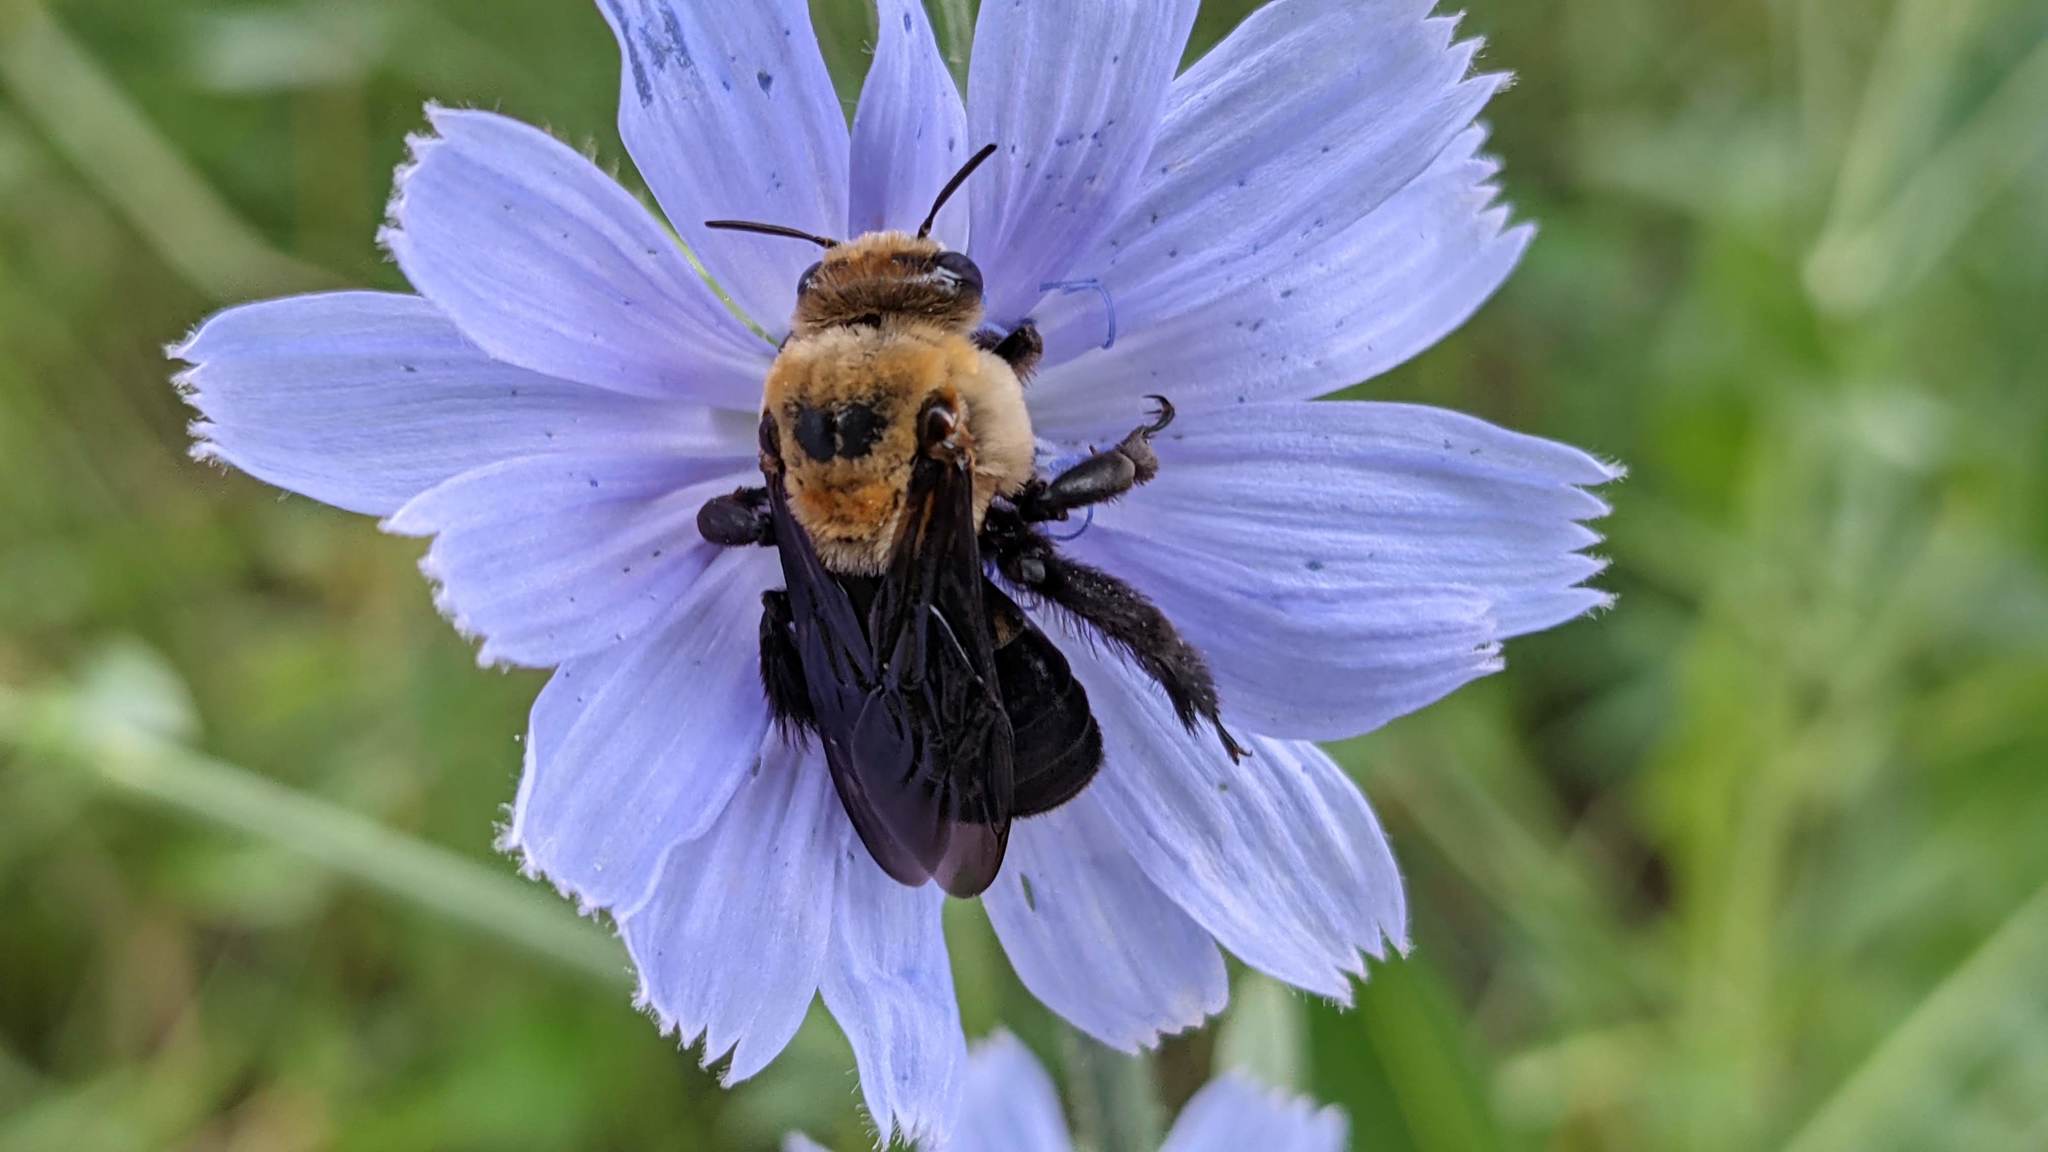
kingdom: Animalia
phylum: Arthropoda
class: Insecta
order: Hymenoptera
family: Apidae
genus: Ptilothrix
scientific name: Ptilothrix bombiformis
